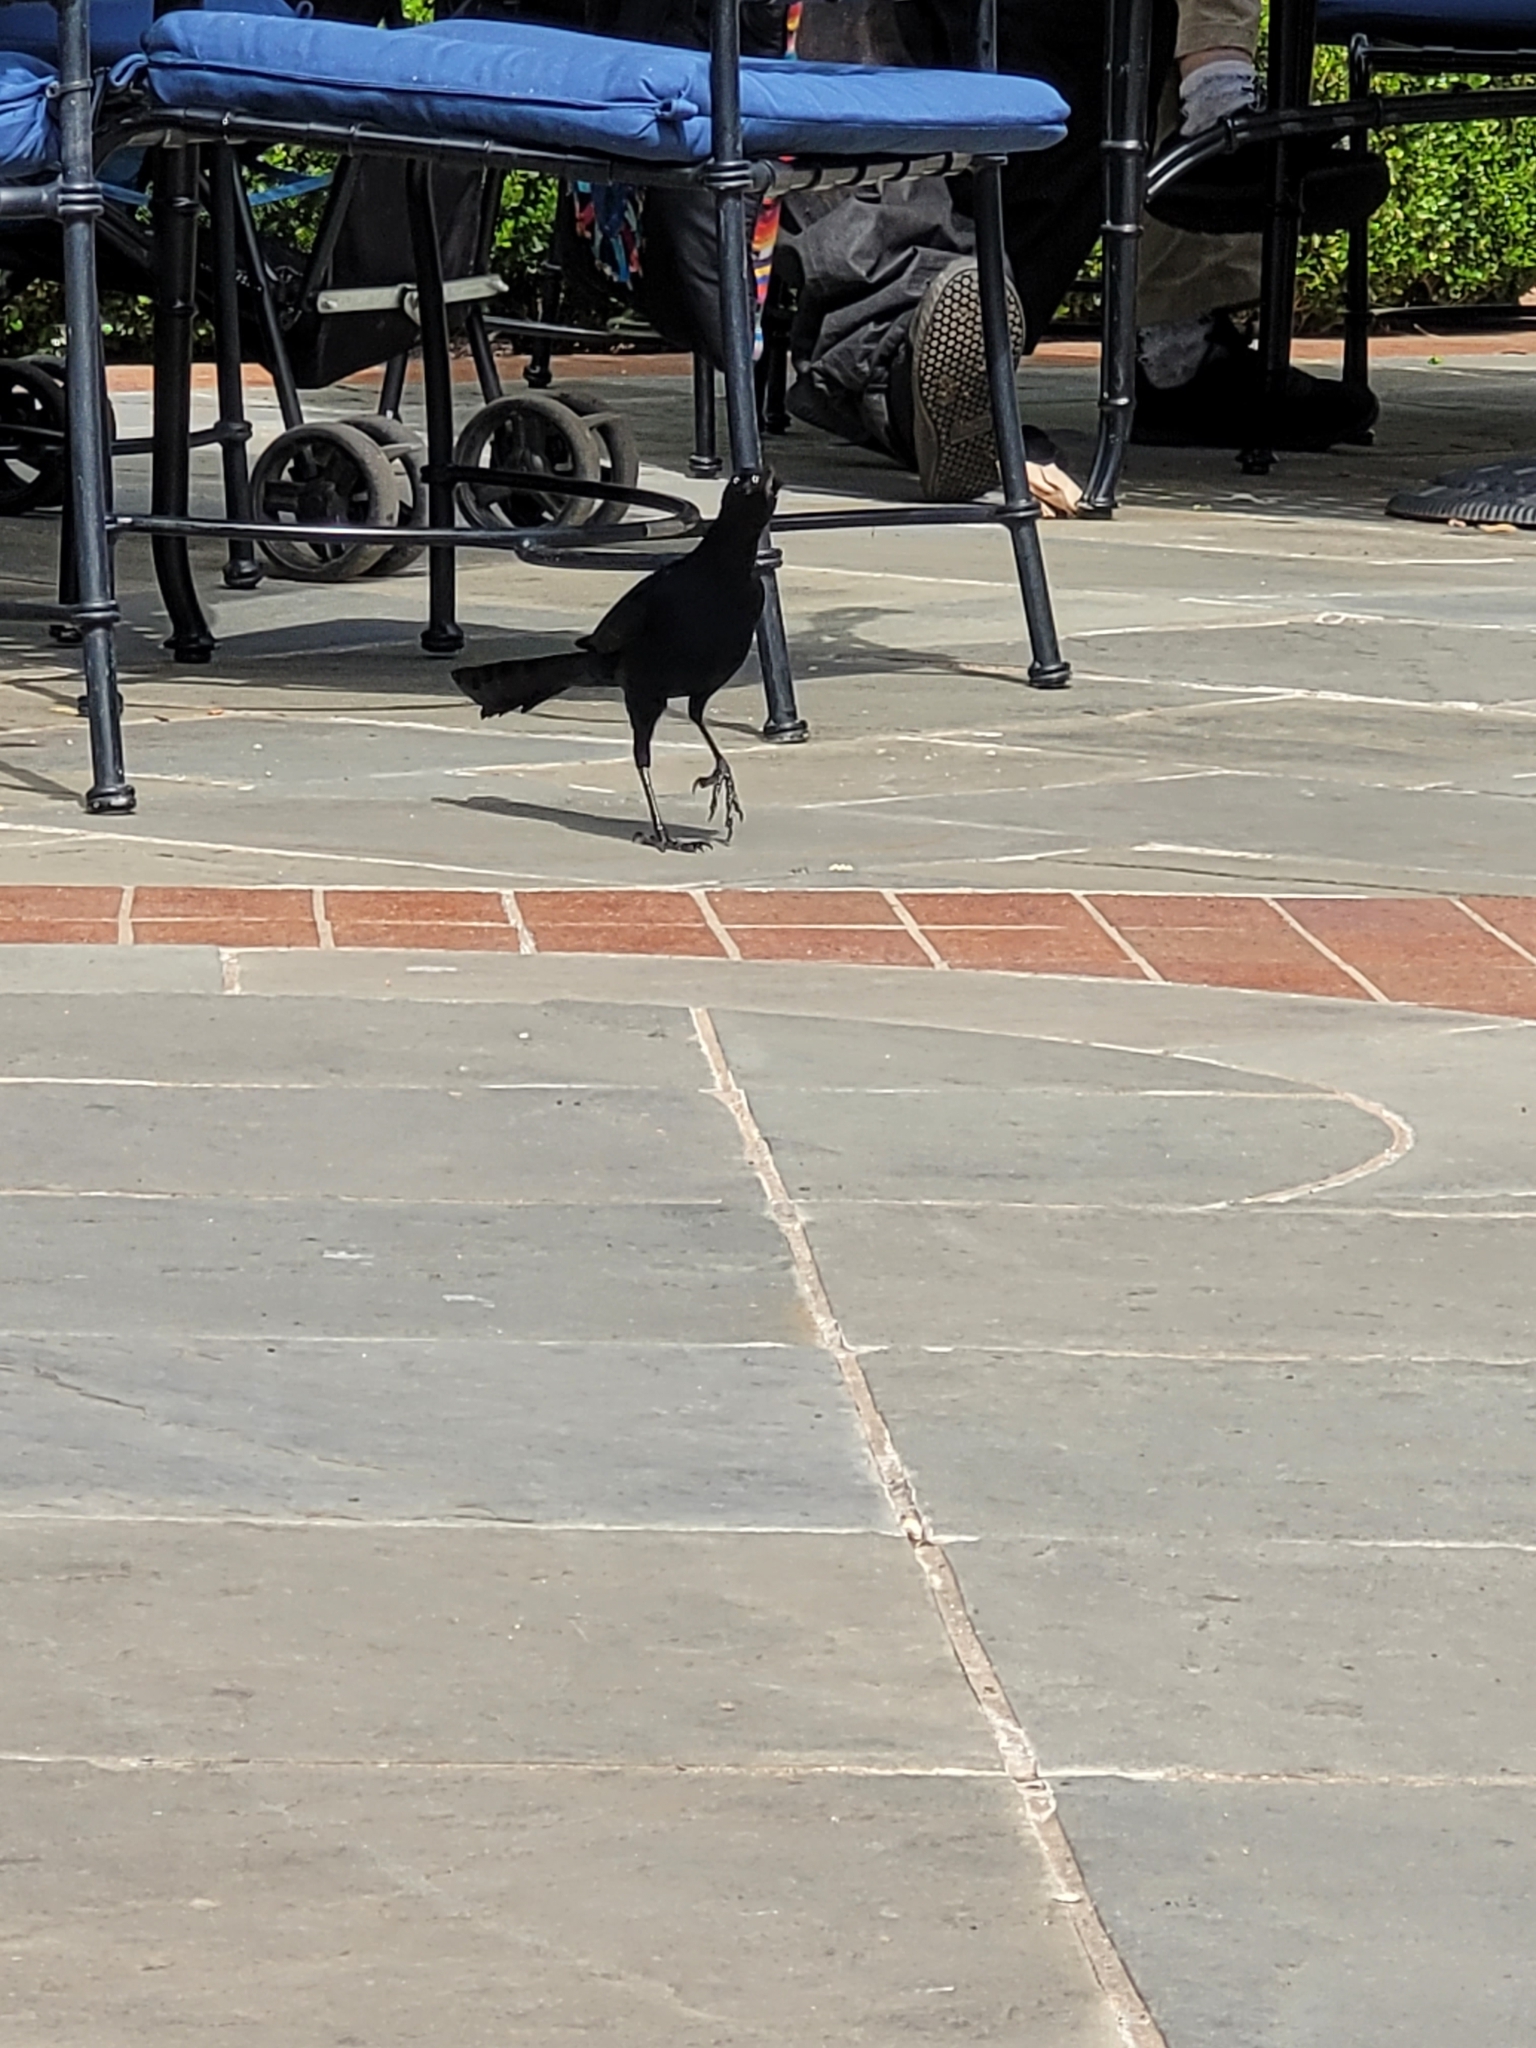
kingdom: Animalia
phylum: Chordata
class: Aves
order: Passeriformes
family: Icteridae
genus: Quiscalus
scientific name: Quiscalus mexicanus
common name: Great-tailed grackle
